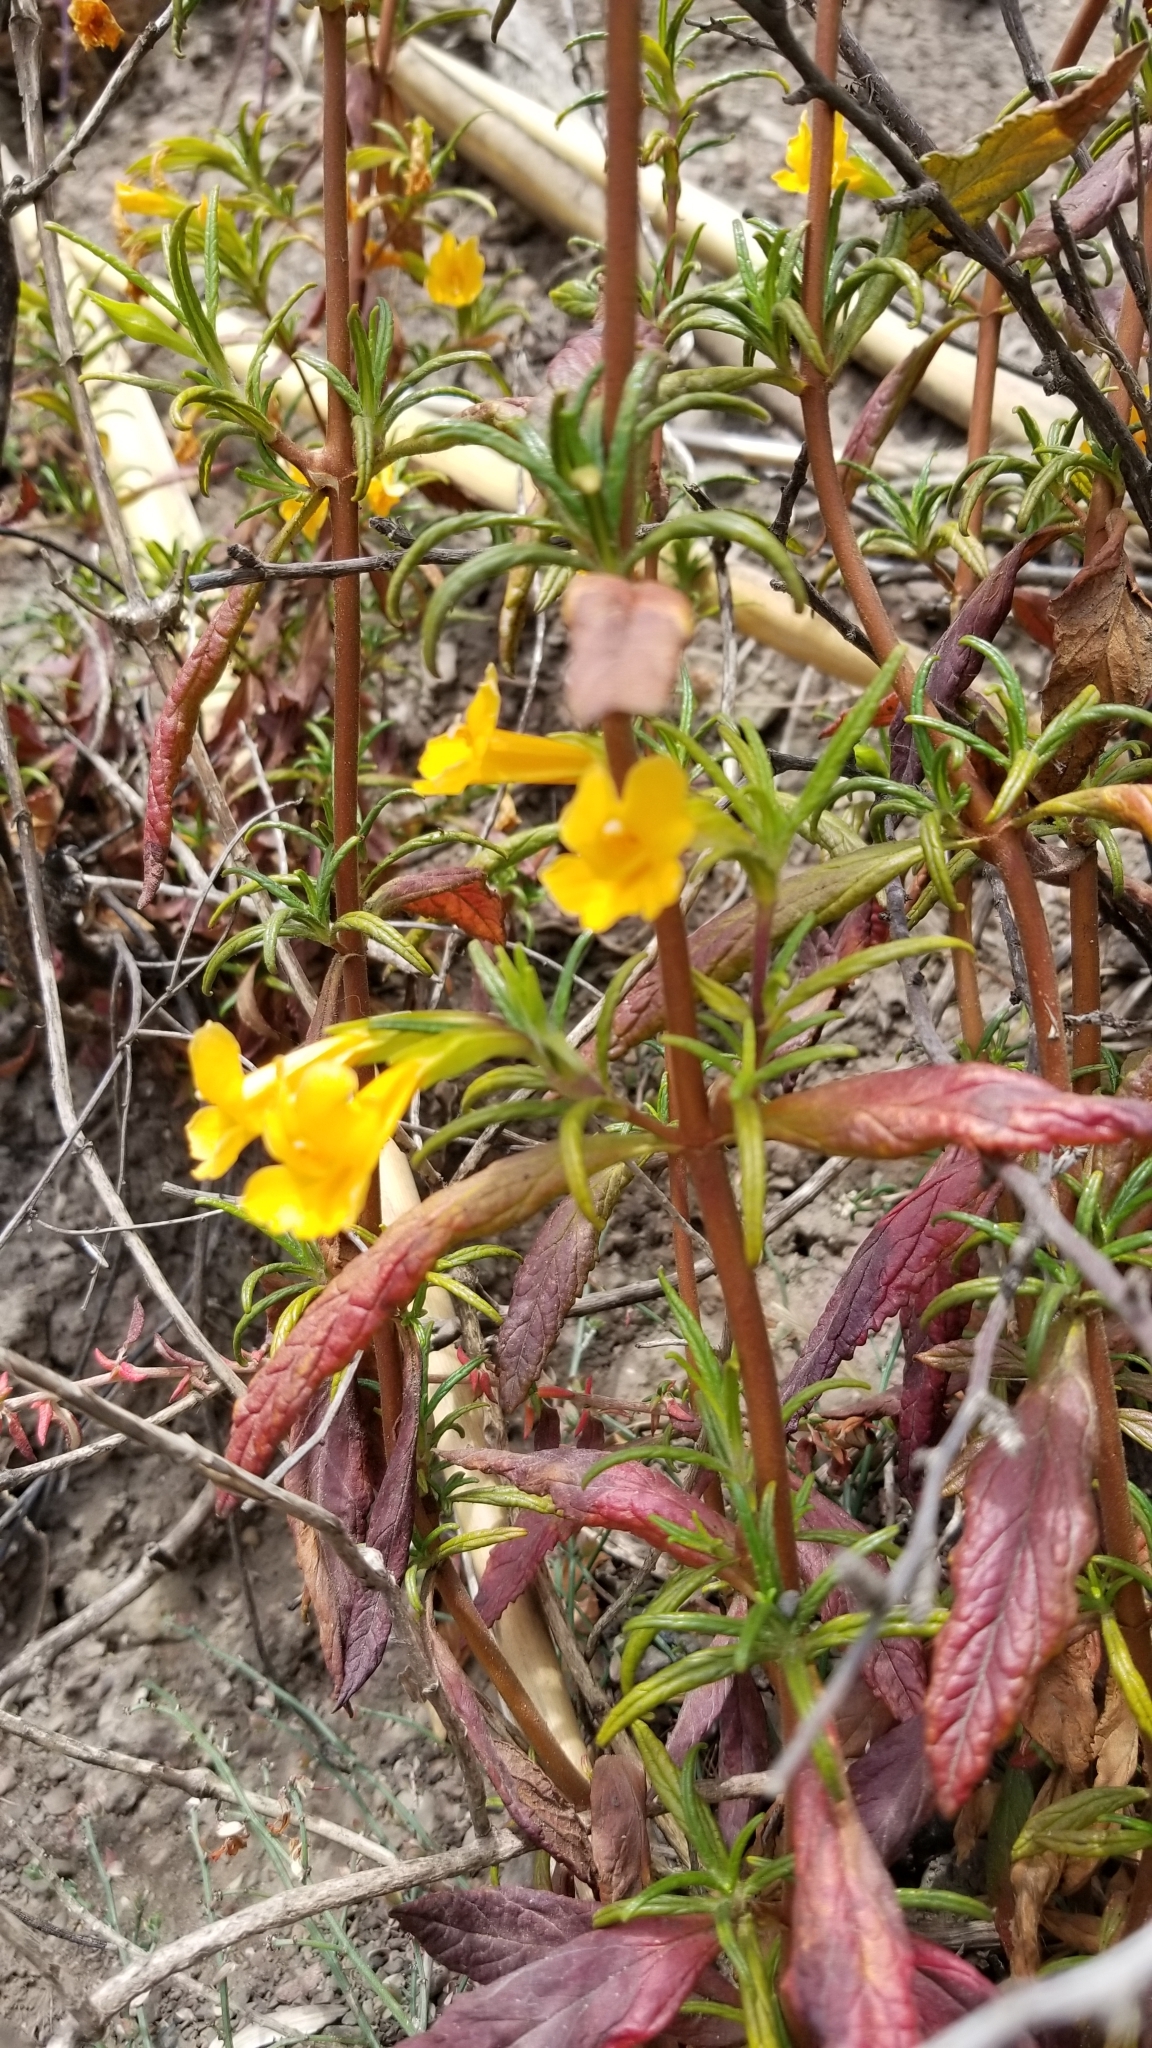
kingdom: Plantae
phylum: Tracheophyta
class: Magnoliopsida
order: Lamiales
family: Phrymaceae
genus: Diplacus
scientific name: Diplacus aurantiacus
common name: Bush monkey-flower
